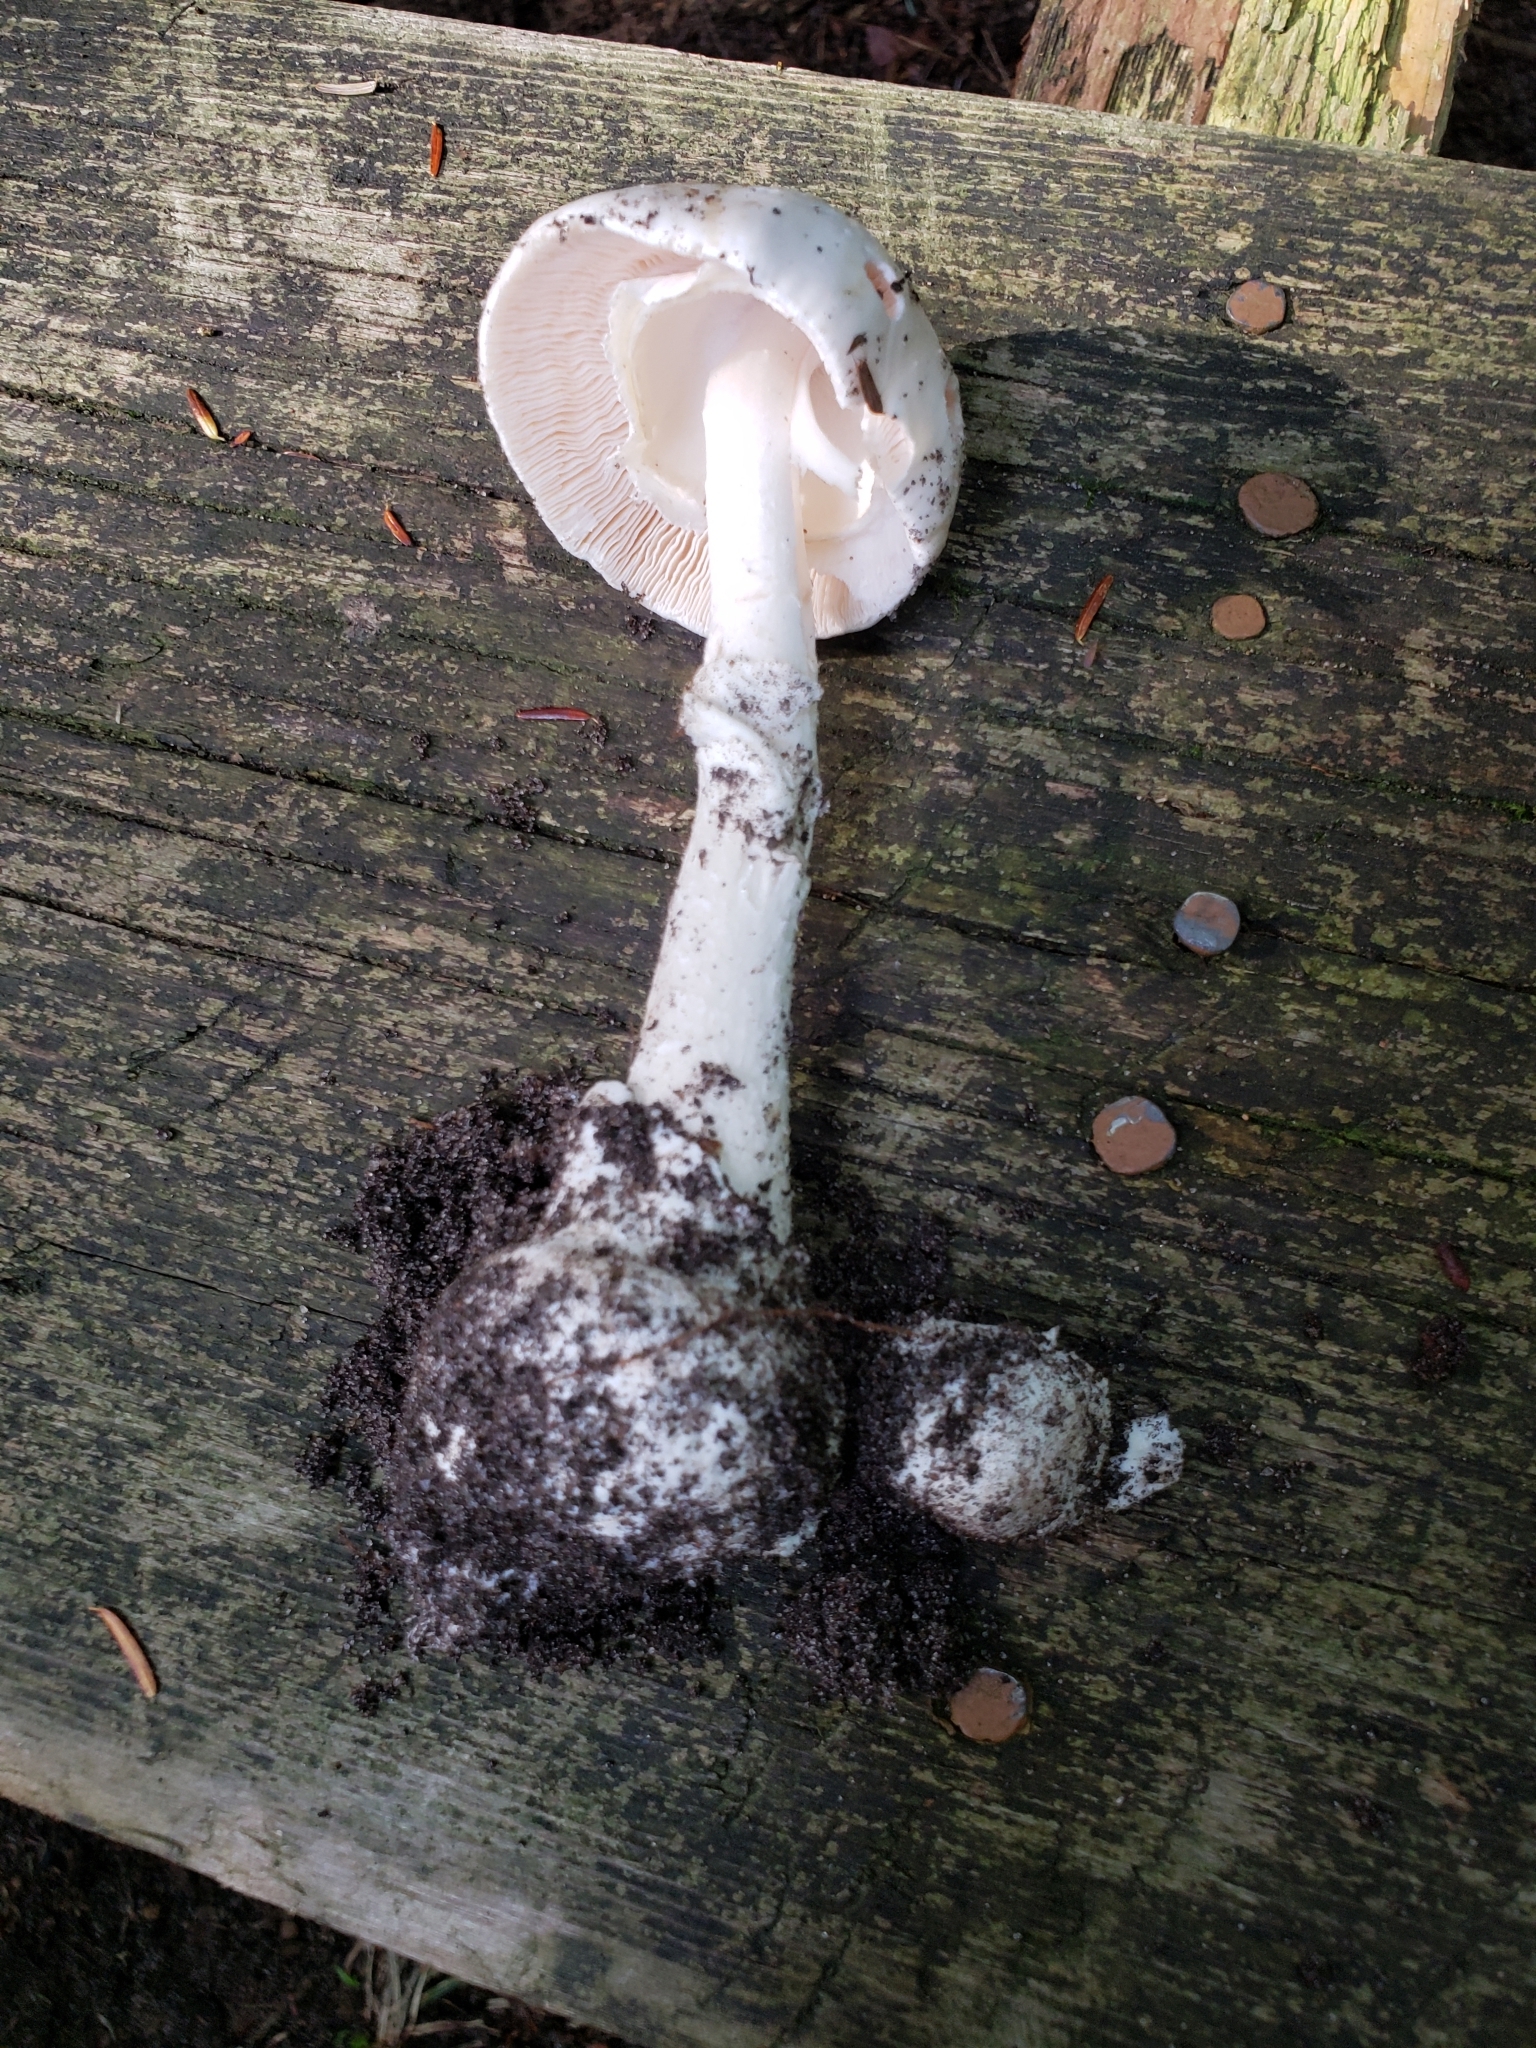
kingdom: Fungi
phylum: Basidiomycota
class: Agaricomycetes
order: Agaricales
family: Amanitaceae
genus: Amanita
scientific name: Amanita bisporigera
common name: Eastern north american destroying angel
